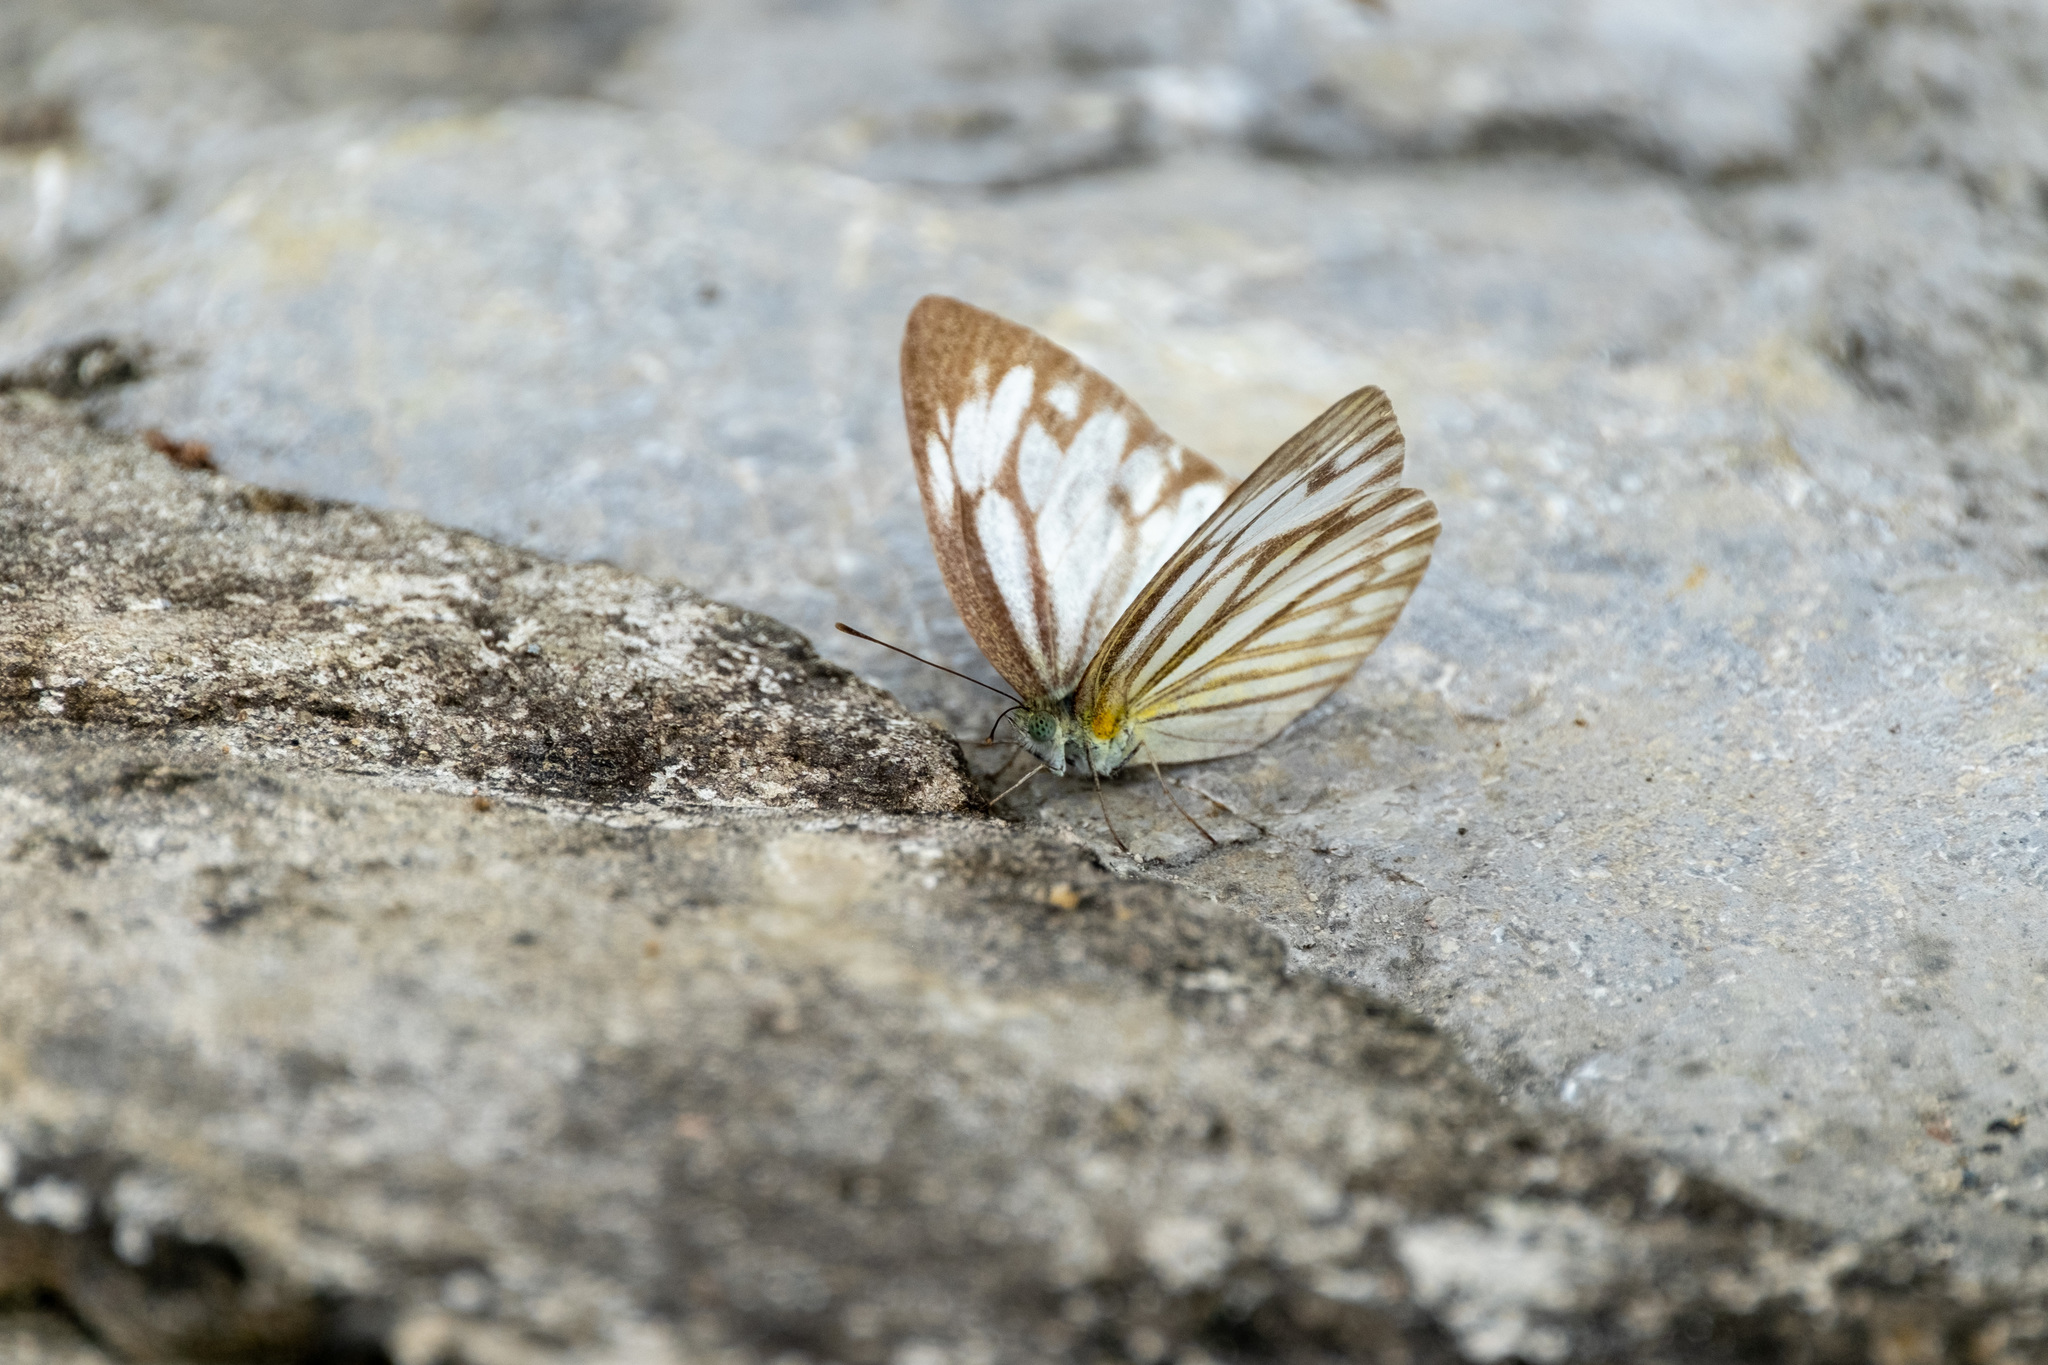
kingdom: Animalia
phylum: Arthropoda
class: Insecta
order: Lepidoptera
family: Pieridae
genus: Cepora
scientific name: Cepora nerissa
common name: Common gull
